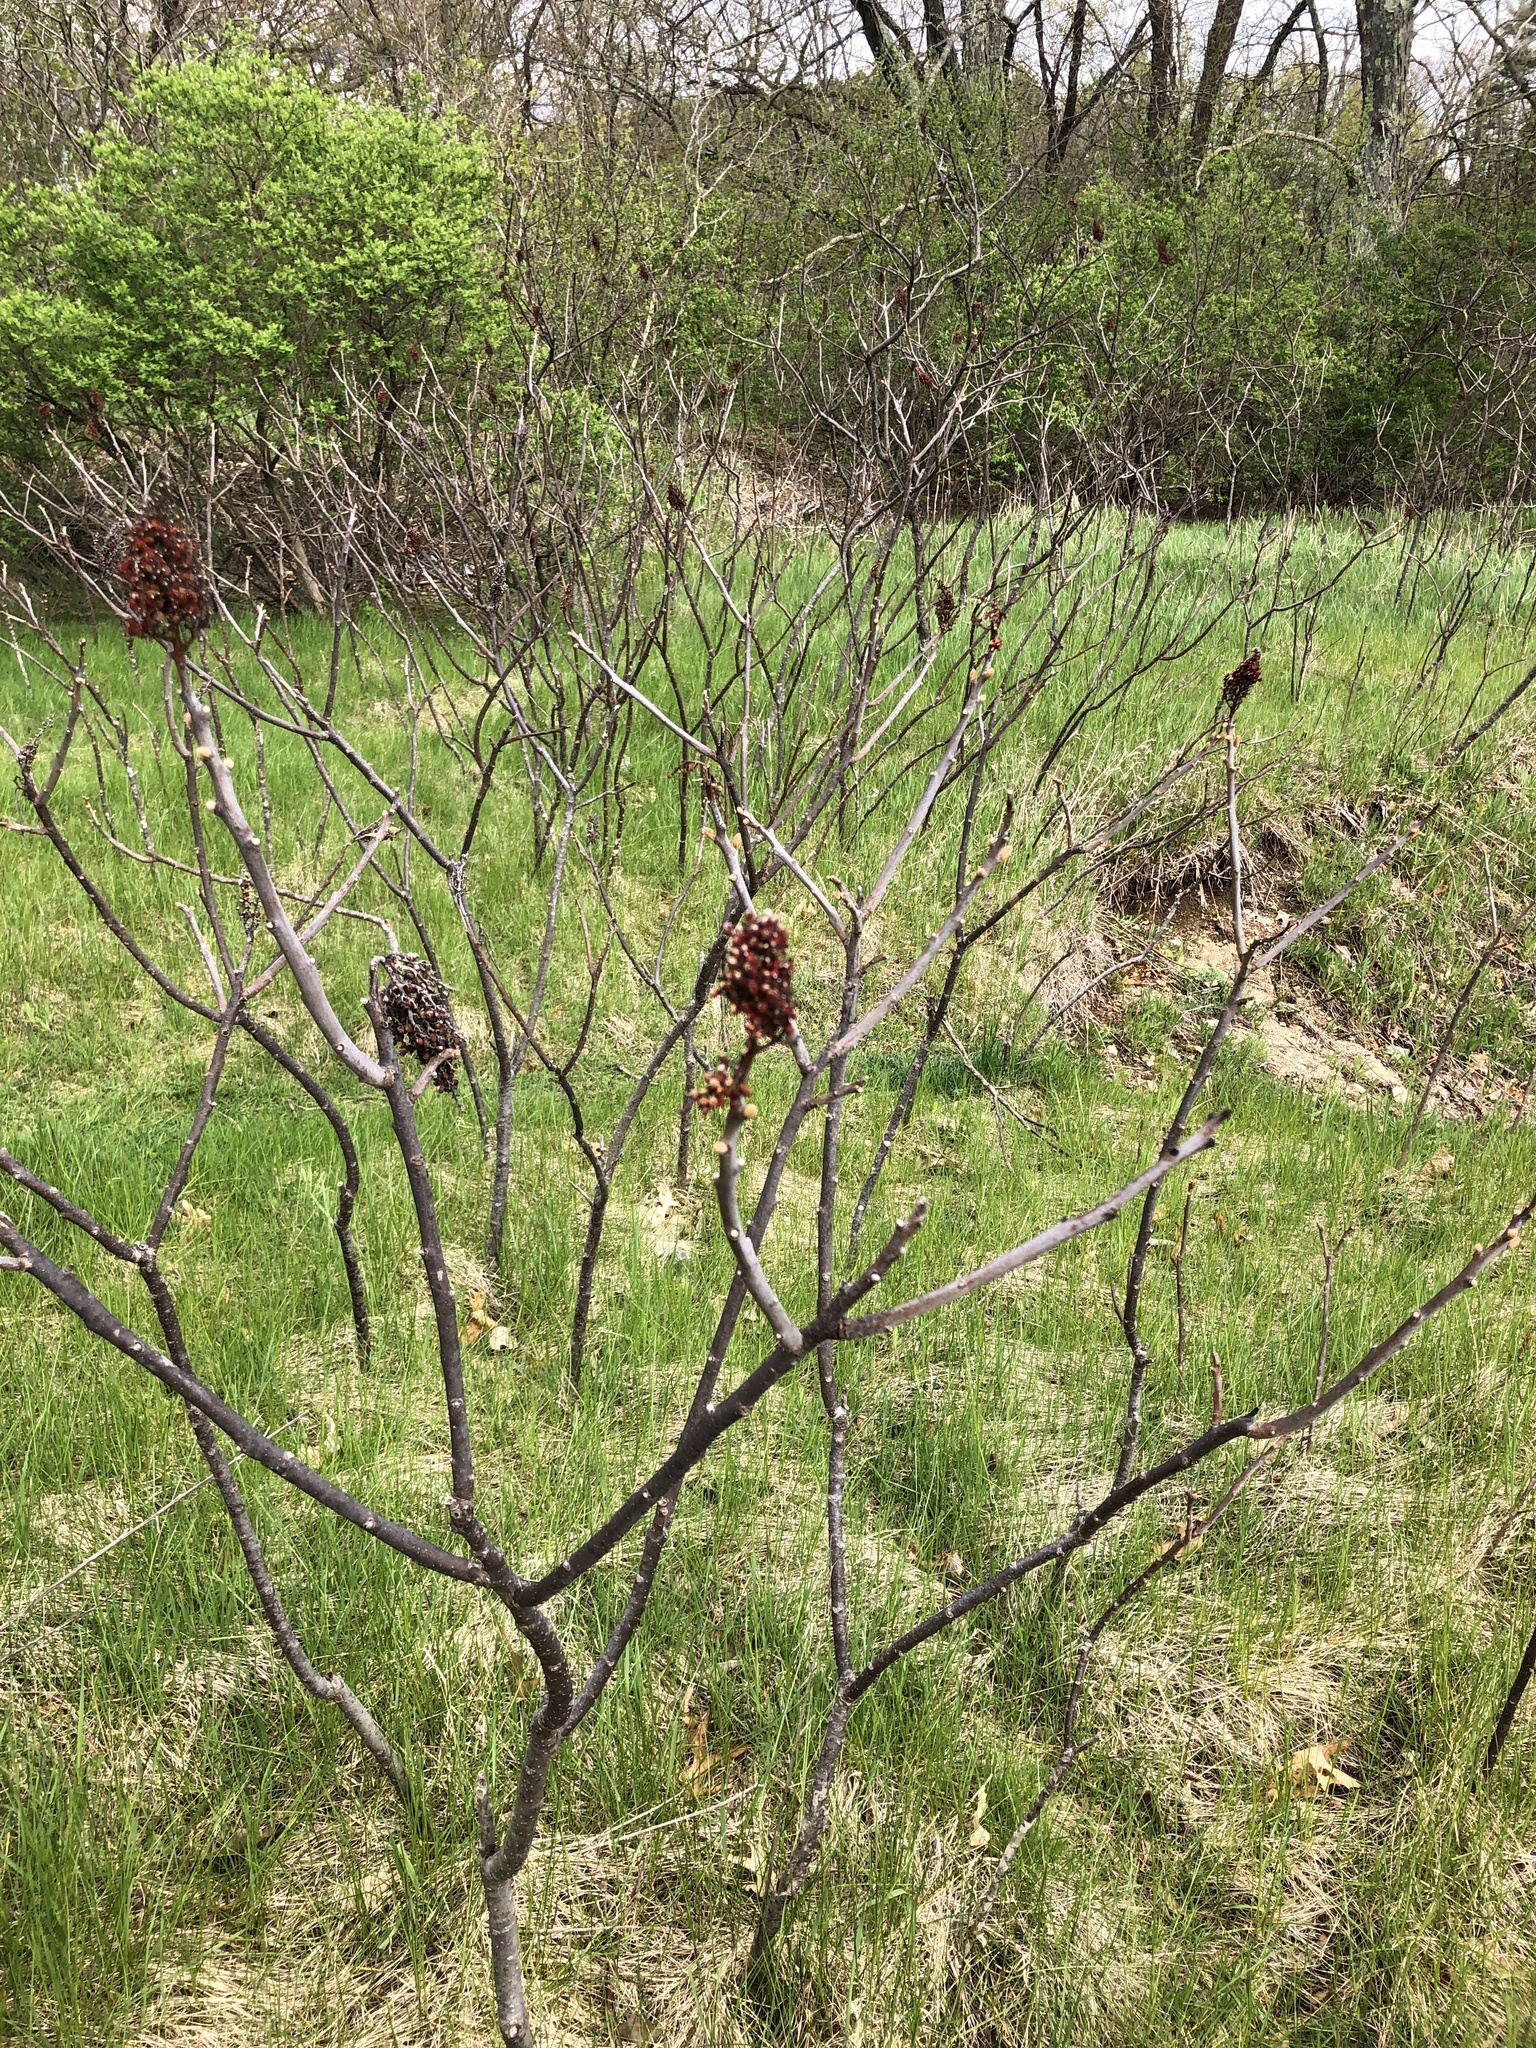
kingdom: Plantae
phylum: Tracheophyta
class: Magnoliopsida
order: Sapindales
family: Anacardiaceae
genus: Rhus
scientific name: Rhus glabra
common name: Scarlet sumac
